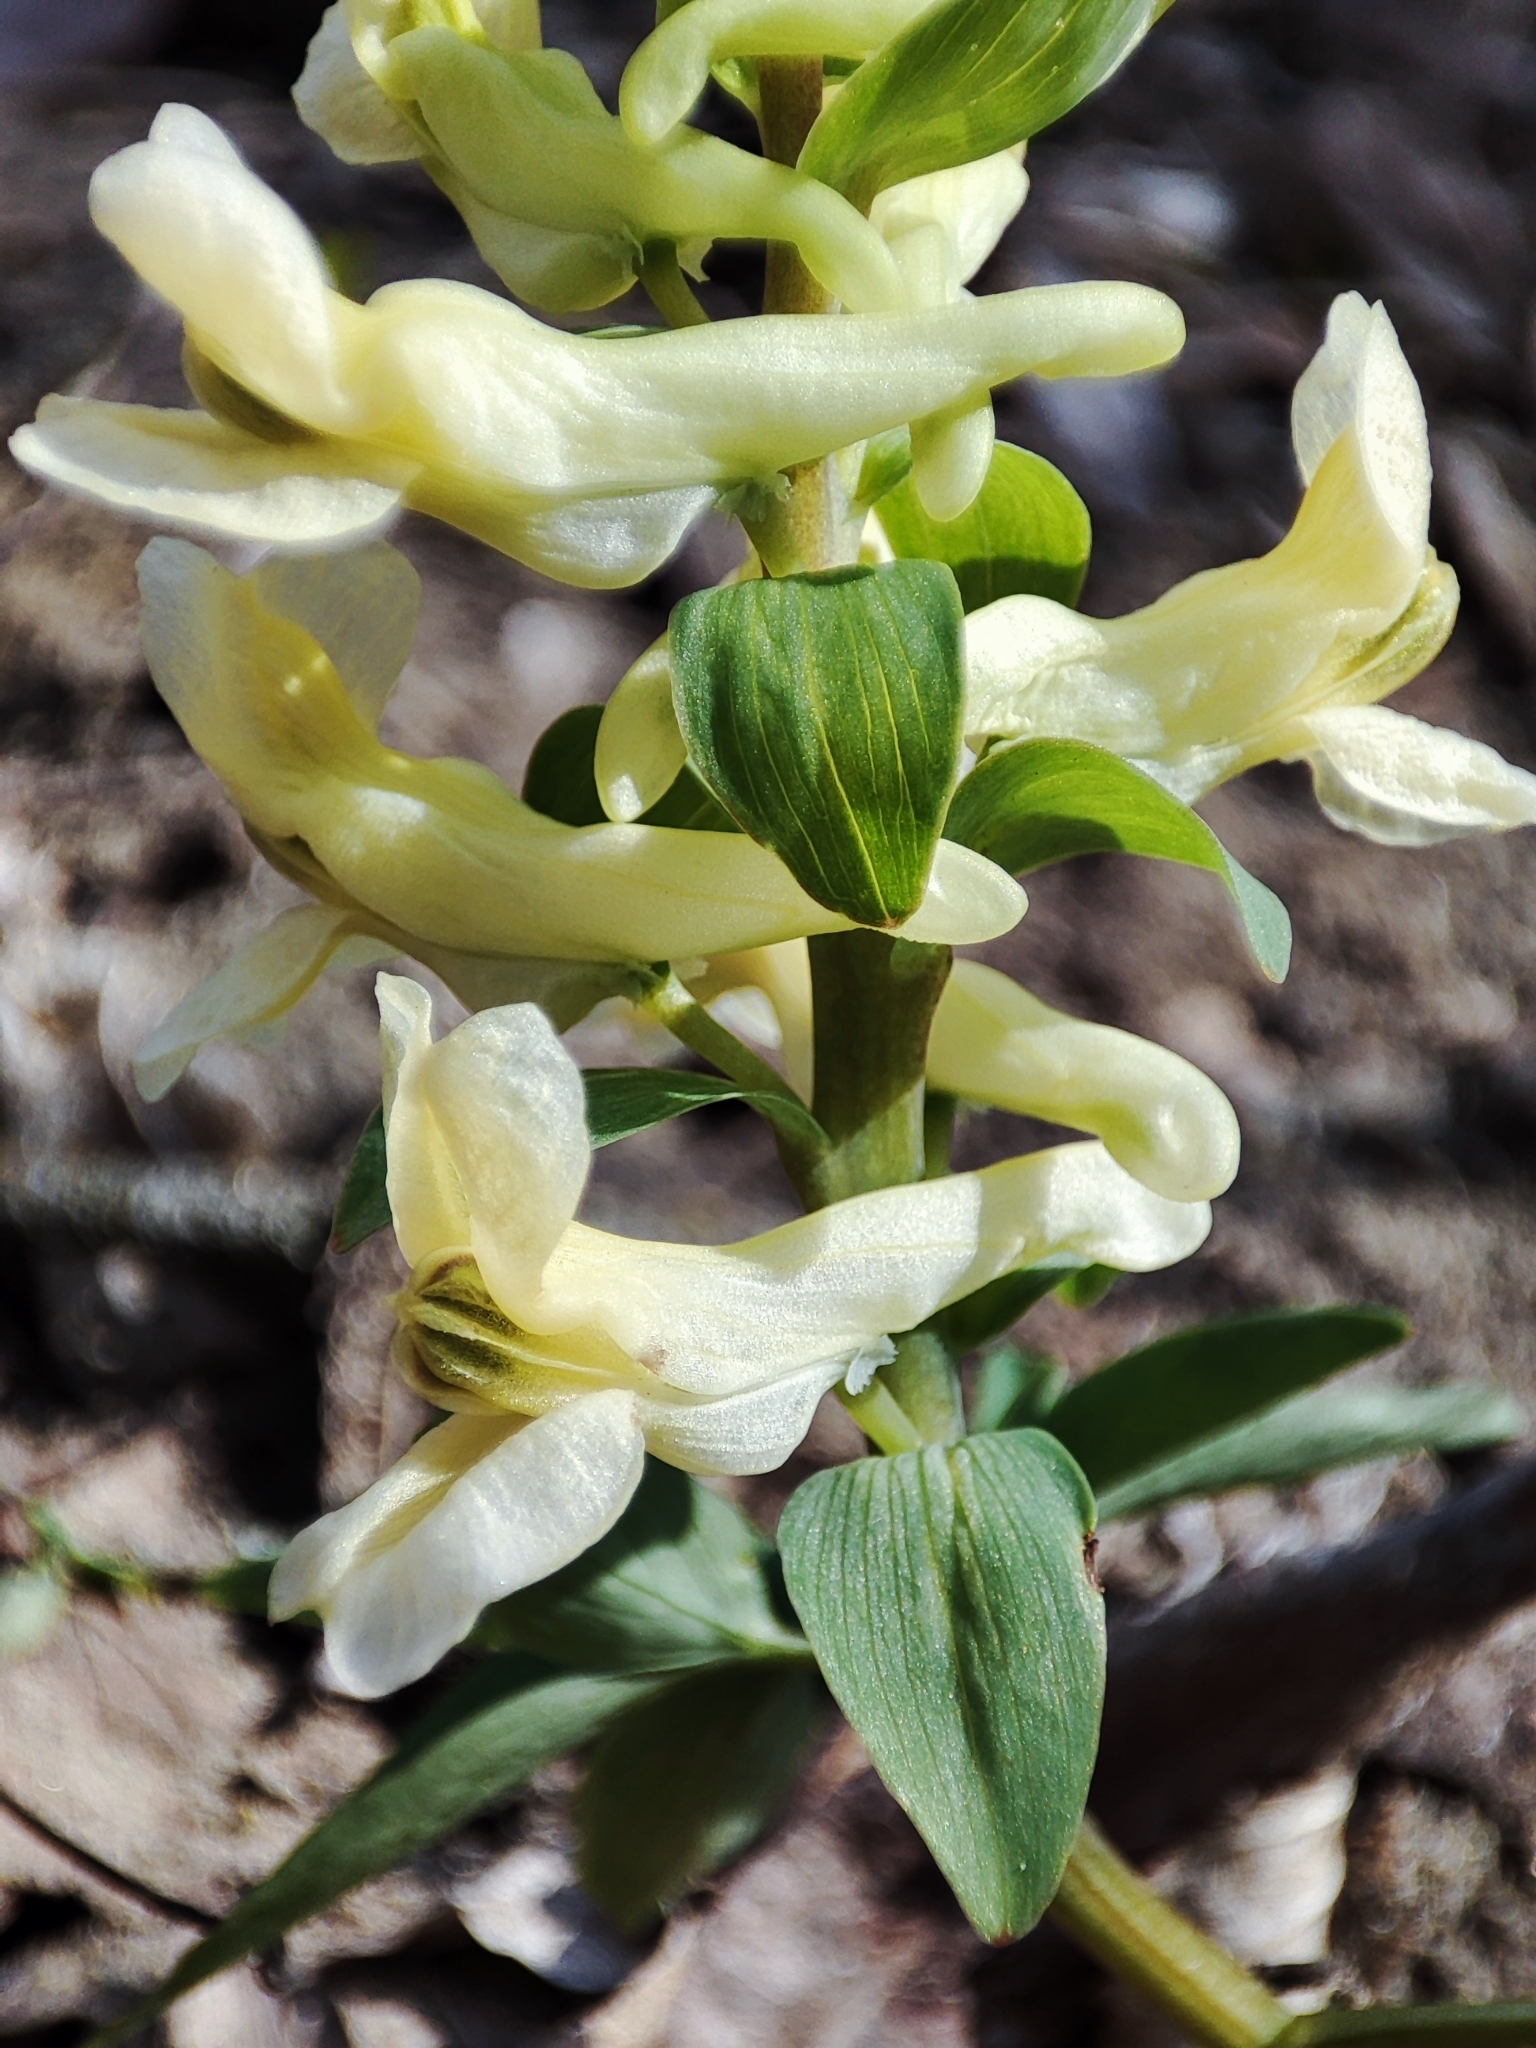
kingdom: Plantae
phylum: Tracheophyta
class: Magnoliopsida
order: Ranunculales
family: Papaveraceae
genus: Corydalis
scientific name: Corydalis cava
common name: Hollowroot
